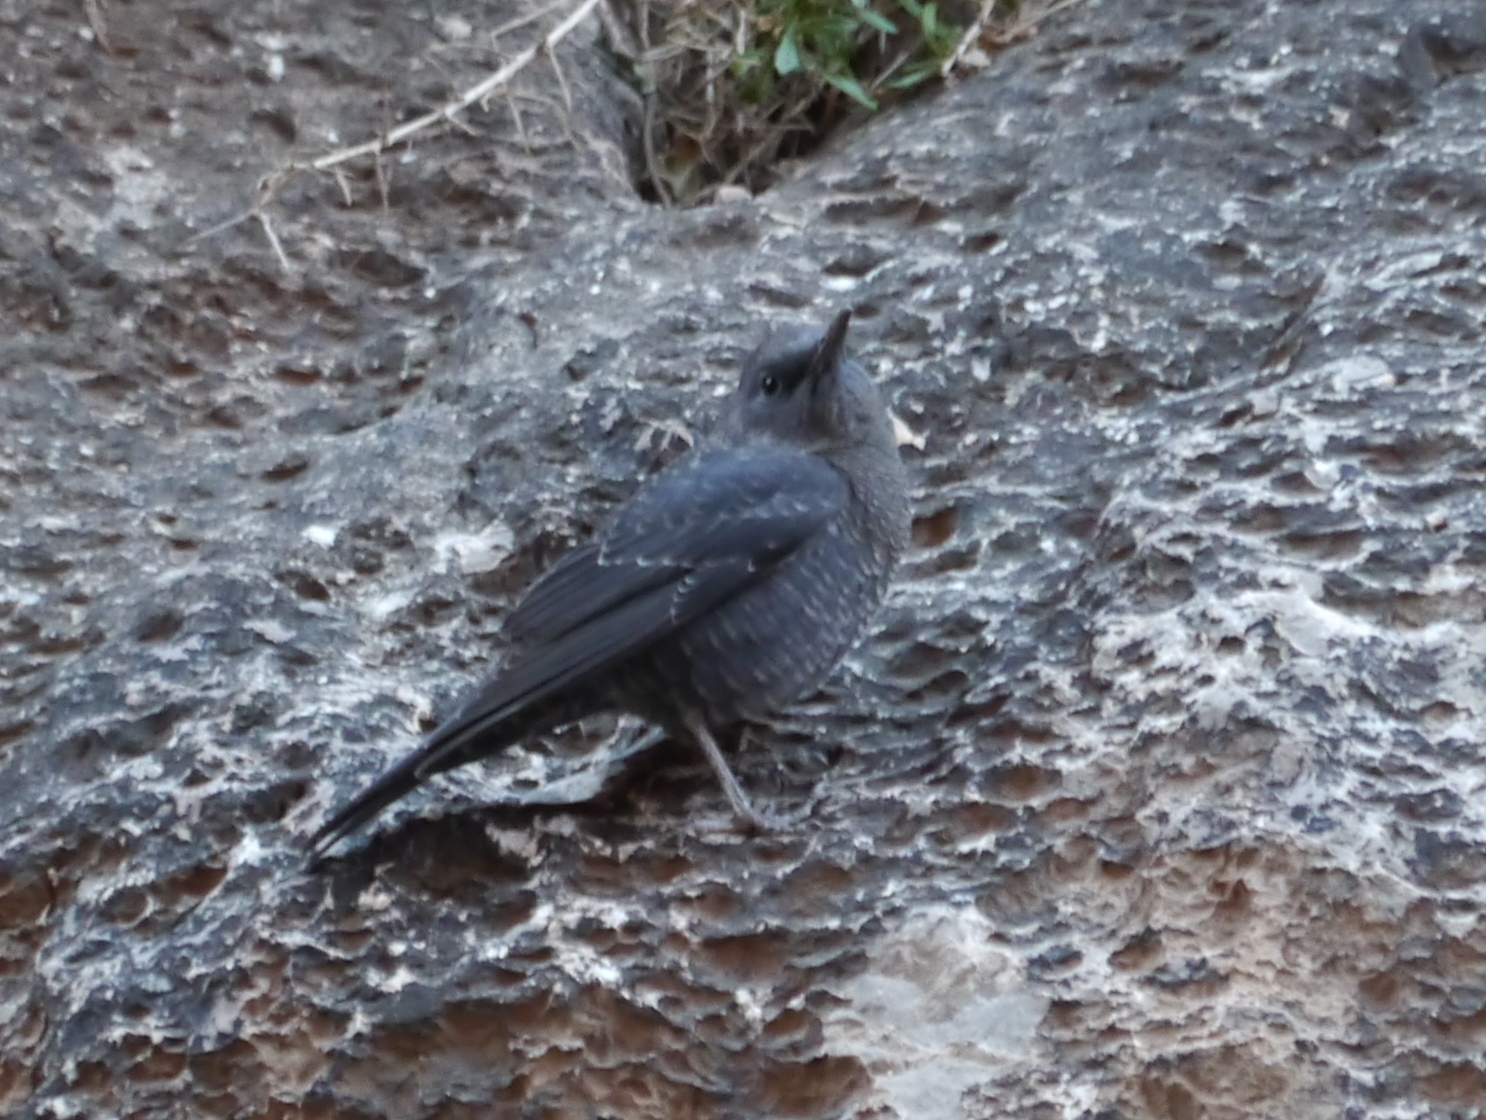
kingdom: Animalia
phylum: Chordata
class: Aves
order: Passeriformes
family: Muscicapidae
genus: Monticola
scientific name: Monticola solitarius
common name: Blue rock thrush
